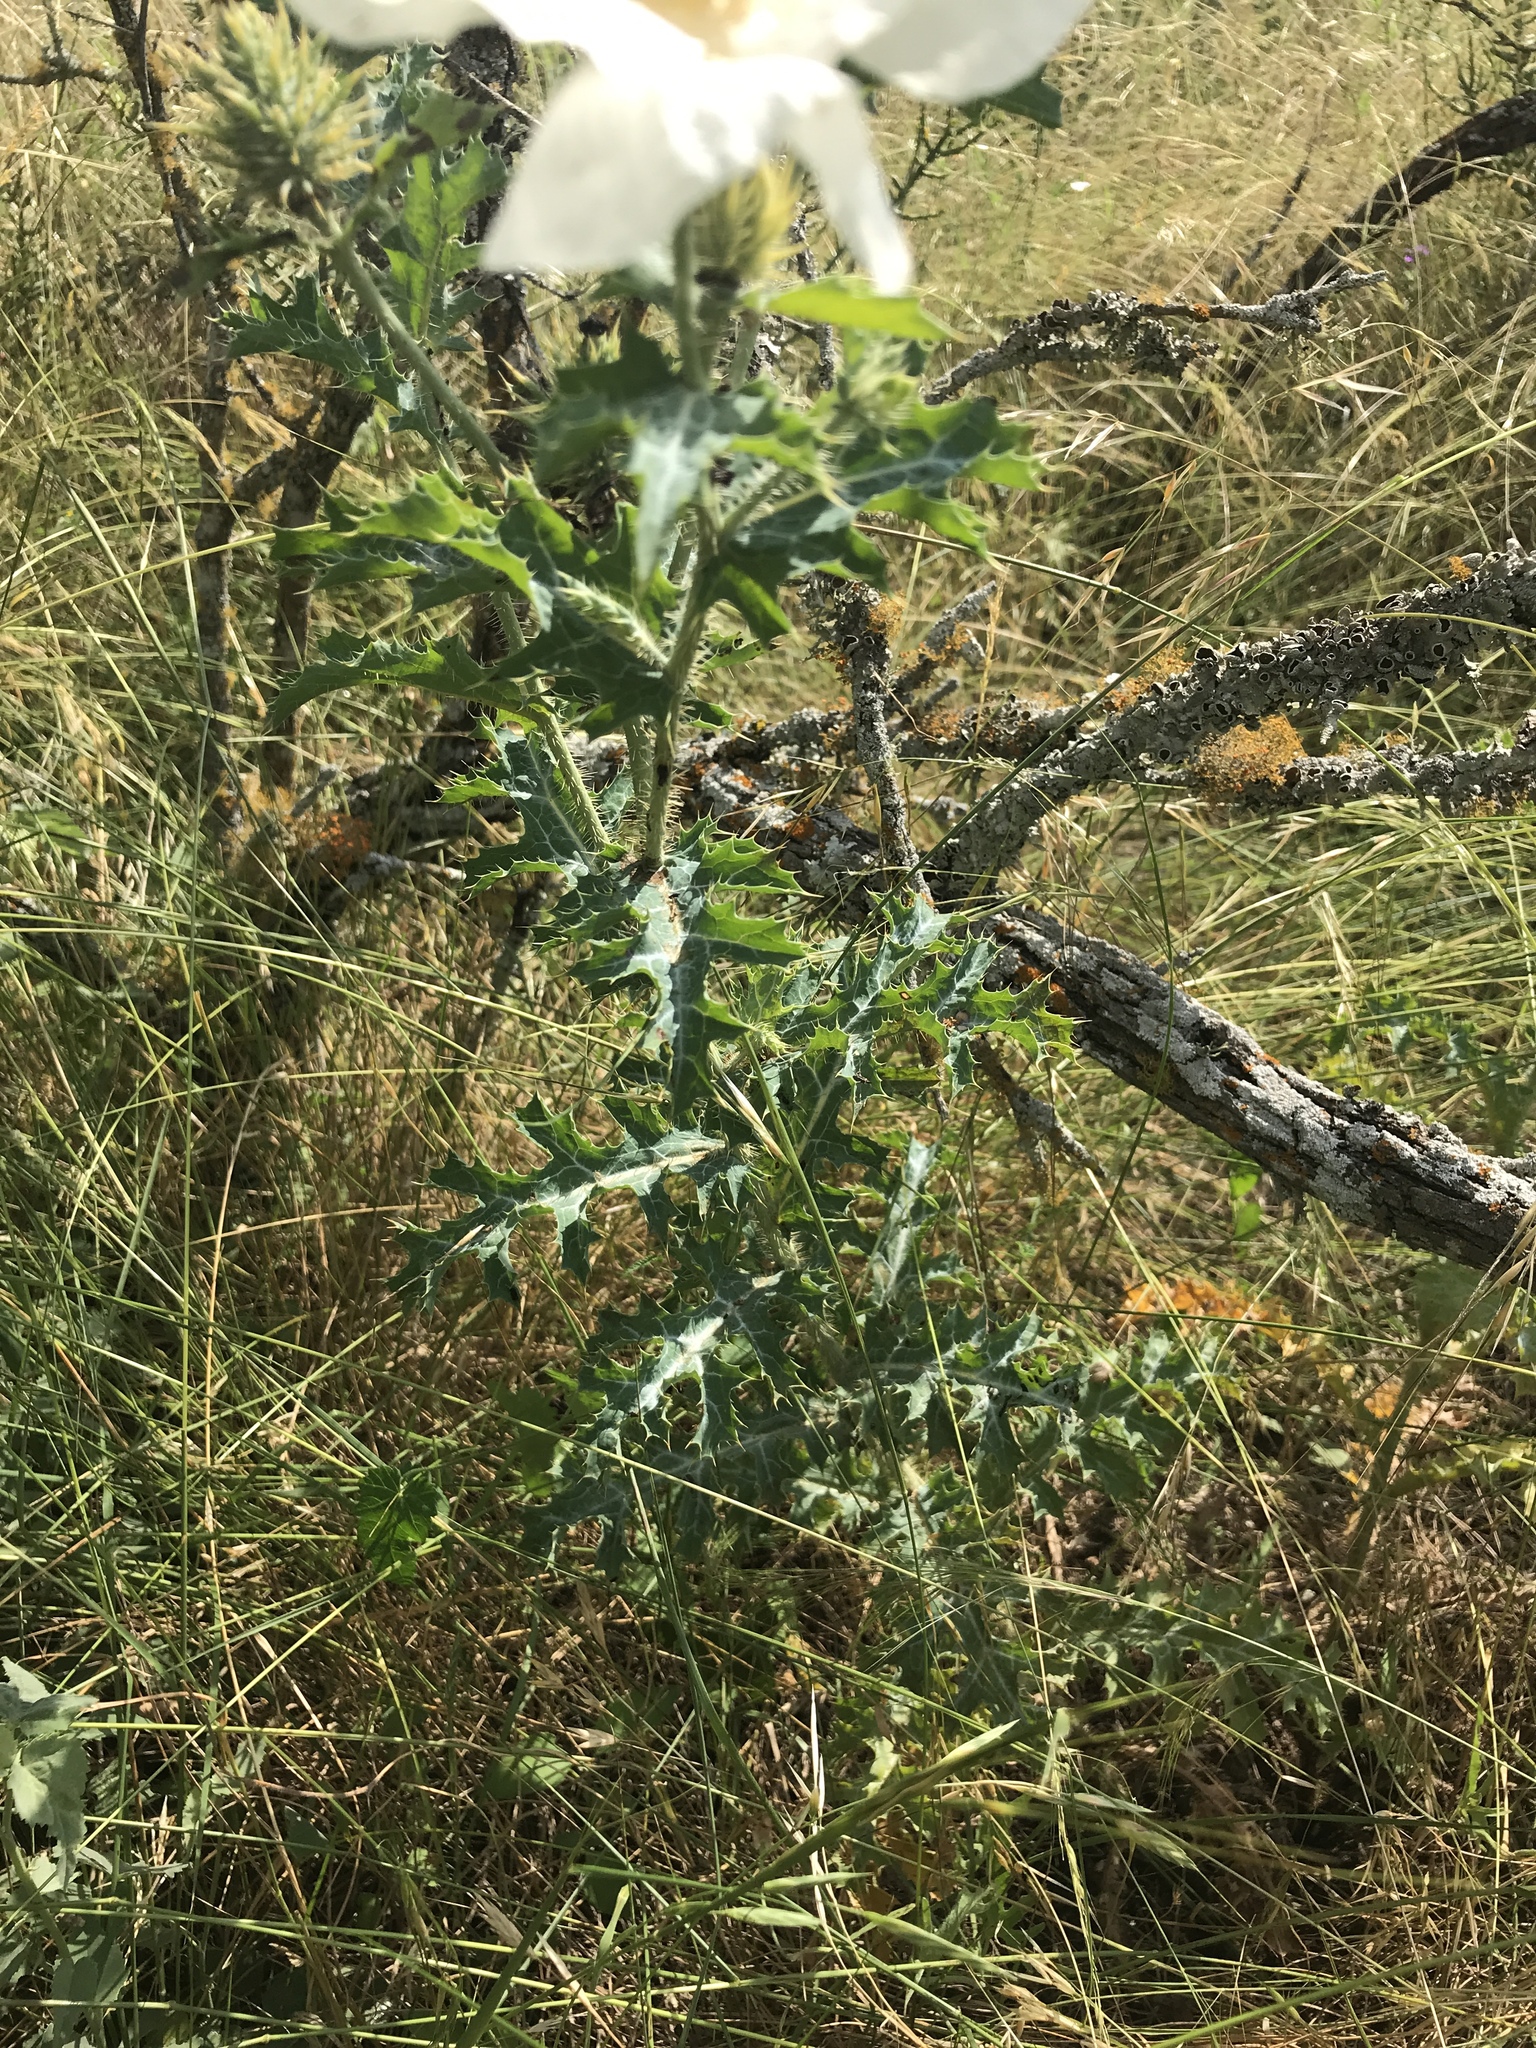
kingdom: Plantae
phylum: Tracheophyta
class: Magnoliopsida
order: Ranunculales
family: Papaveraceae
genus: Argemone
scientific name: Argemone albiflora
